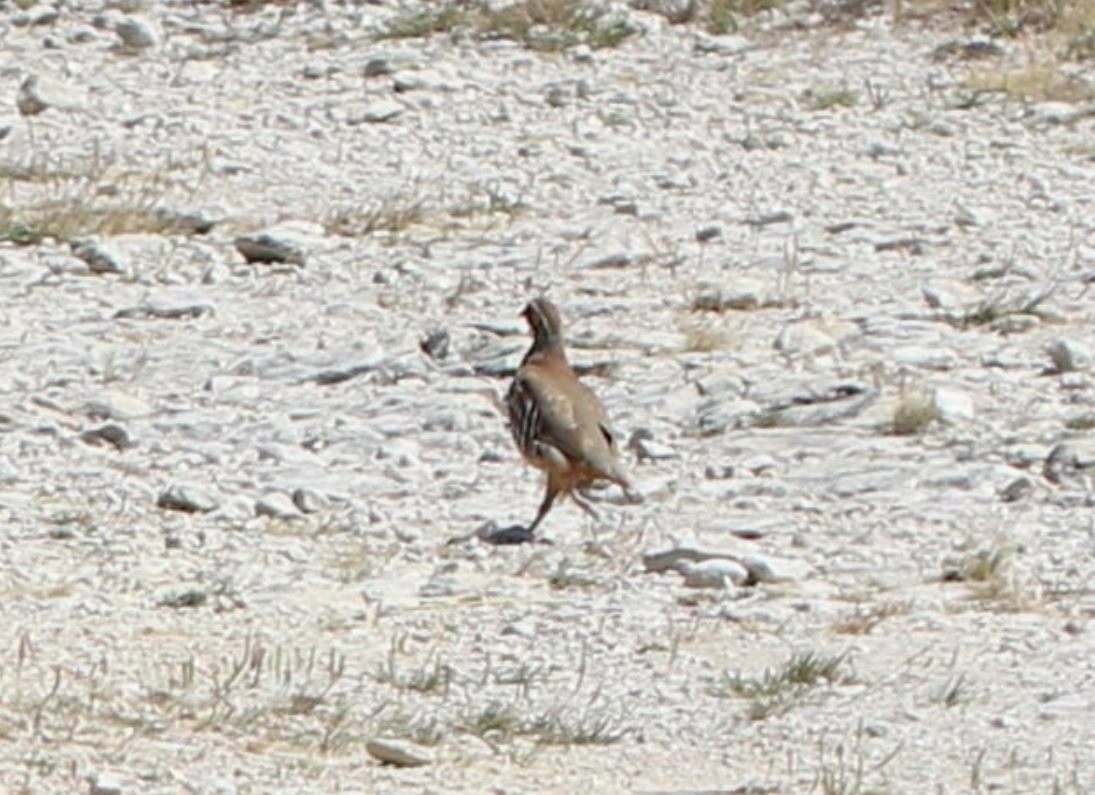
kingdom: Animalia
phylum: Chordata
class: Aves
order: Galliformes
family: Phasianidae
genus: Alectoris
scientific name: Alectoris rufa
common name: Red-legged partridge
